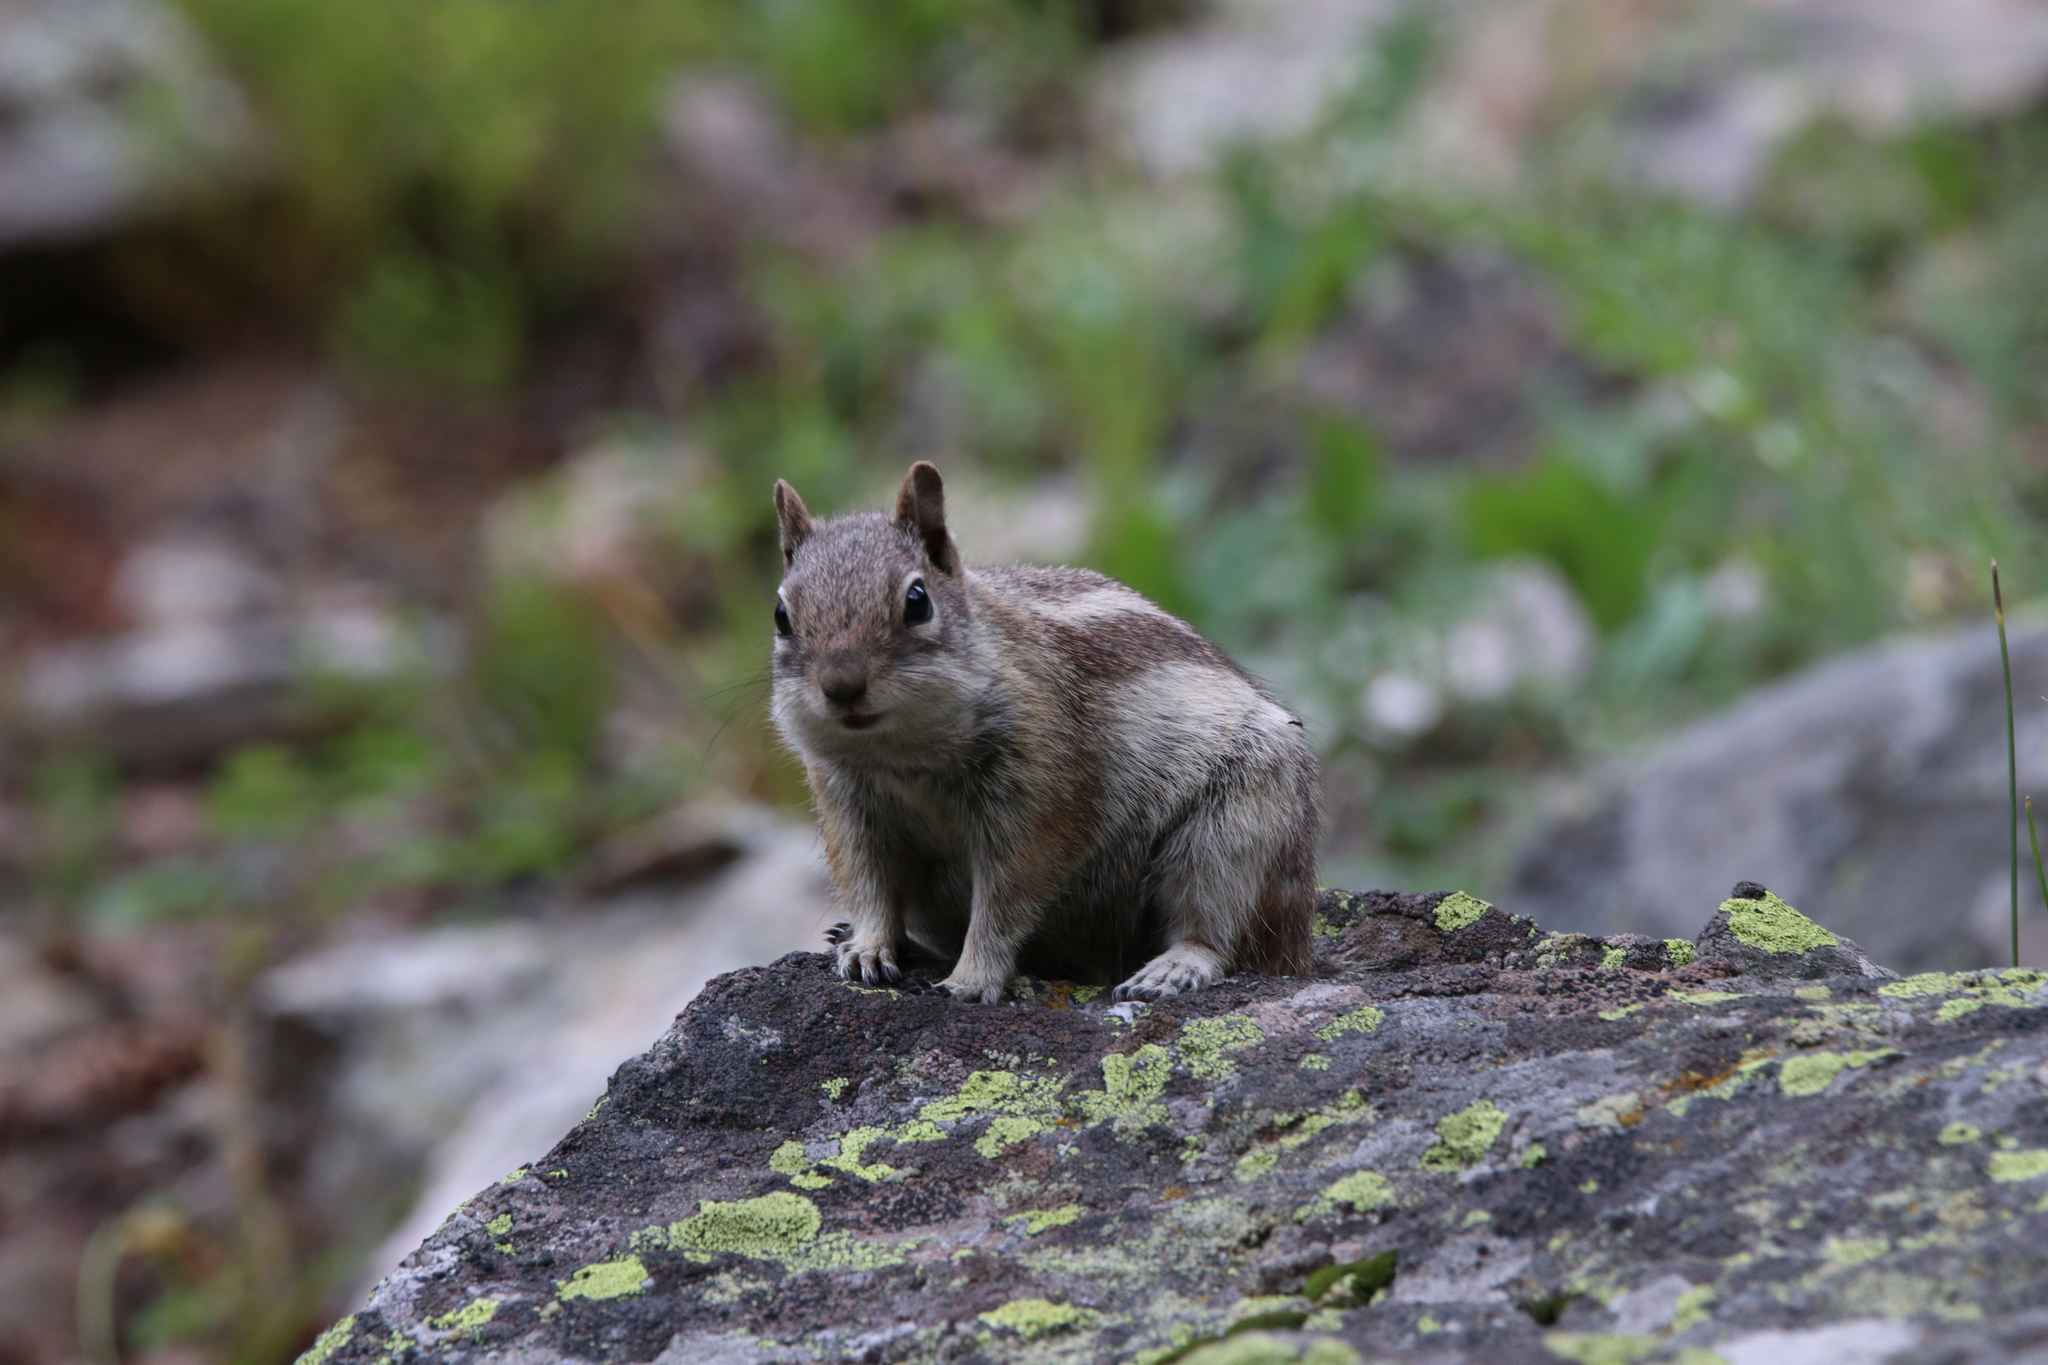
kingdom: Animalia
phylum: Chordata
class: Mammalia
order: Rodentia
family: Sciuridae
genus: Callospermophilus
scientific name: Callospermophilus lateralis
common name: Golden-mantled ground squirrel
